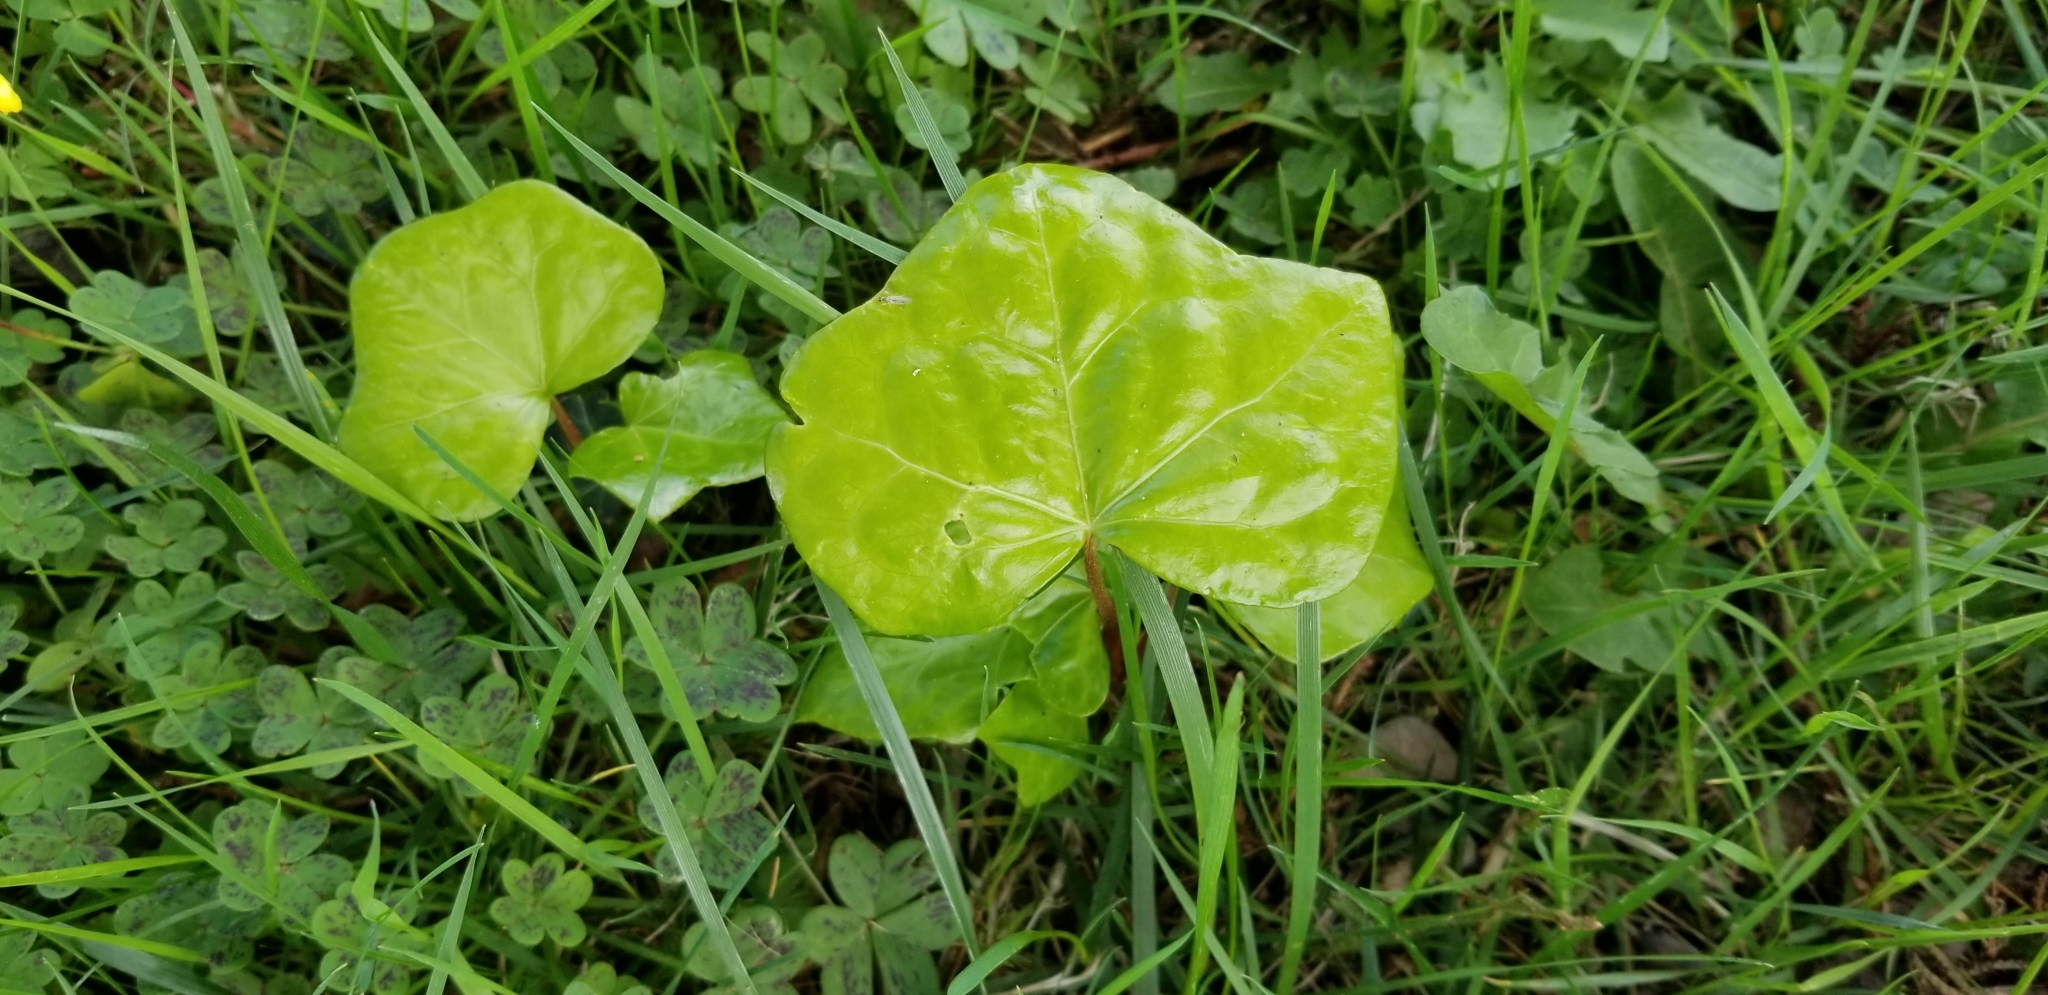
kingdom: Plantae
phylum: Tracheophyta
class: Magnoliopsida
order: Apiales
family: Araliaceae
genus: Hedera
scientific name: Hedera helix
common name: Ivy
